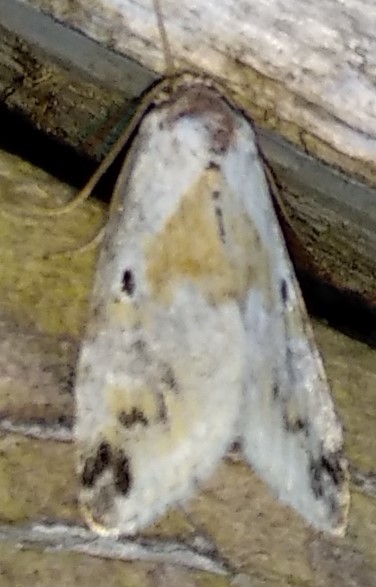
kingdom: Animalia
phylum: Arthropoda
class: Insecta
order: Lepidoptera
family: Noctuidae
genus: Maliattha
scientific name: Maliattha synochitis
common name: Black-dotted glyph
